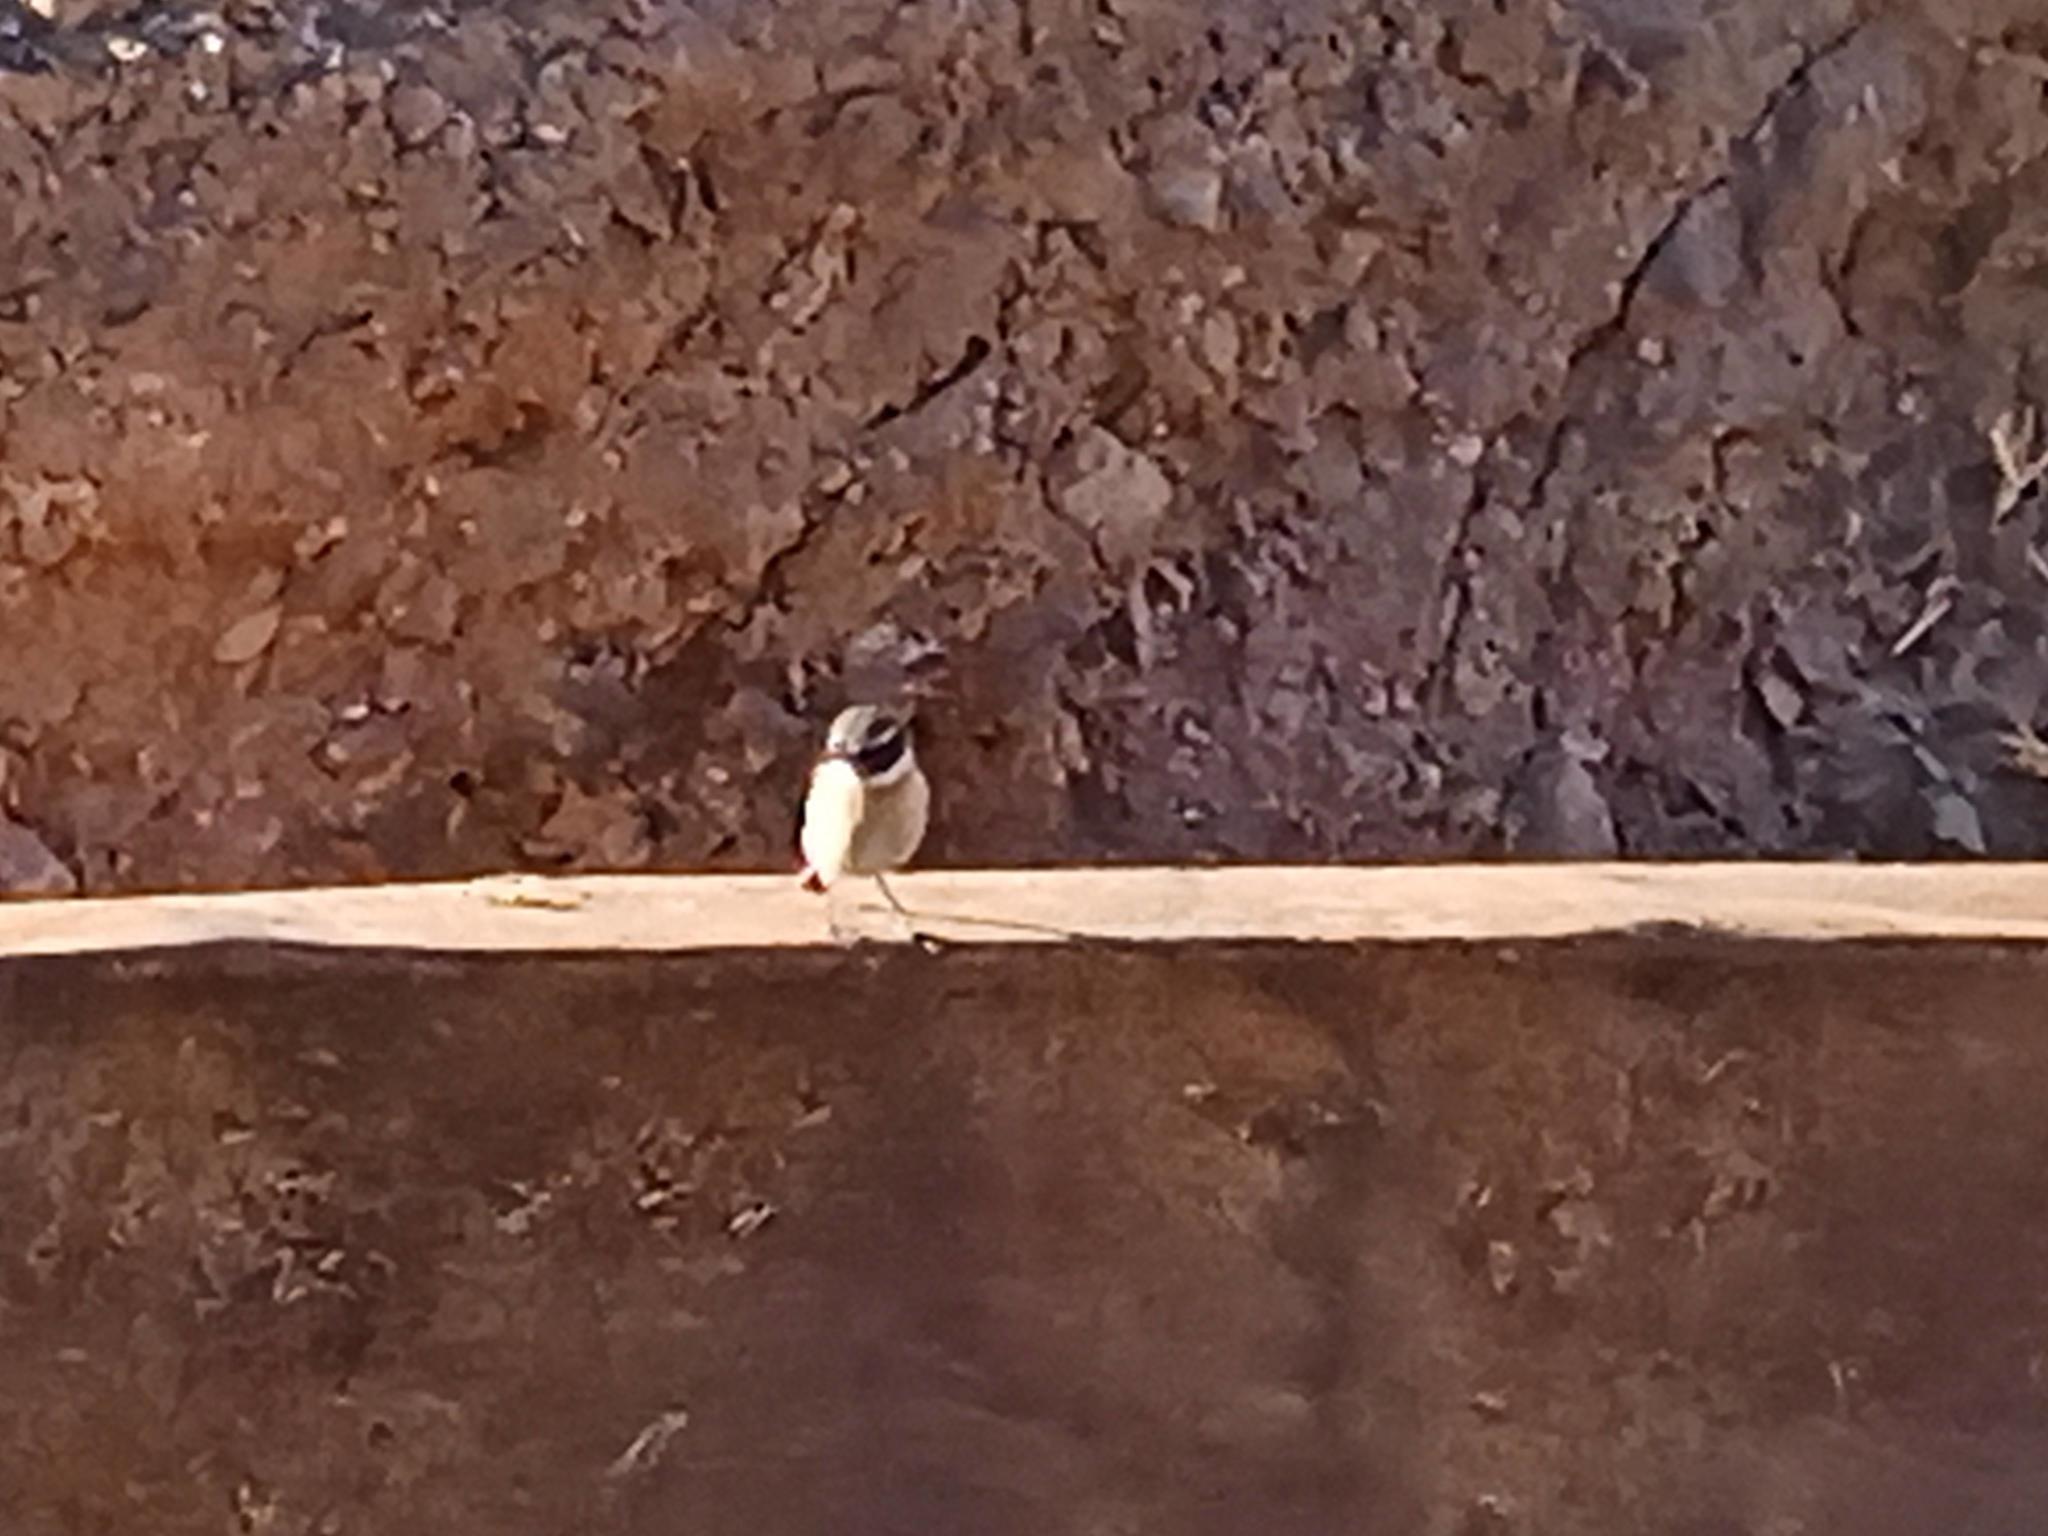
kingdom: Animalia
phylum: Chordata
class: Aves
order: Passeriformes
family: Muscicapidae
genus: Saxicola
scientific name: Saxicola dacotiae
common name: Canary islands stonechat
